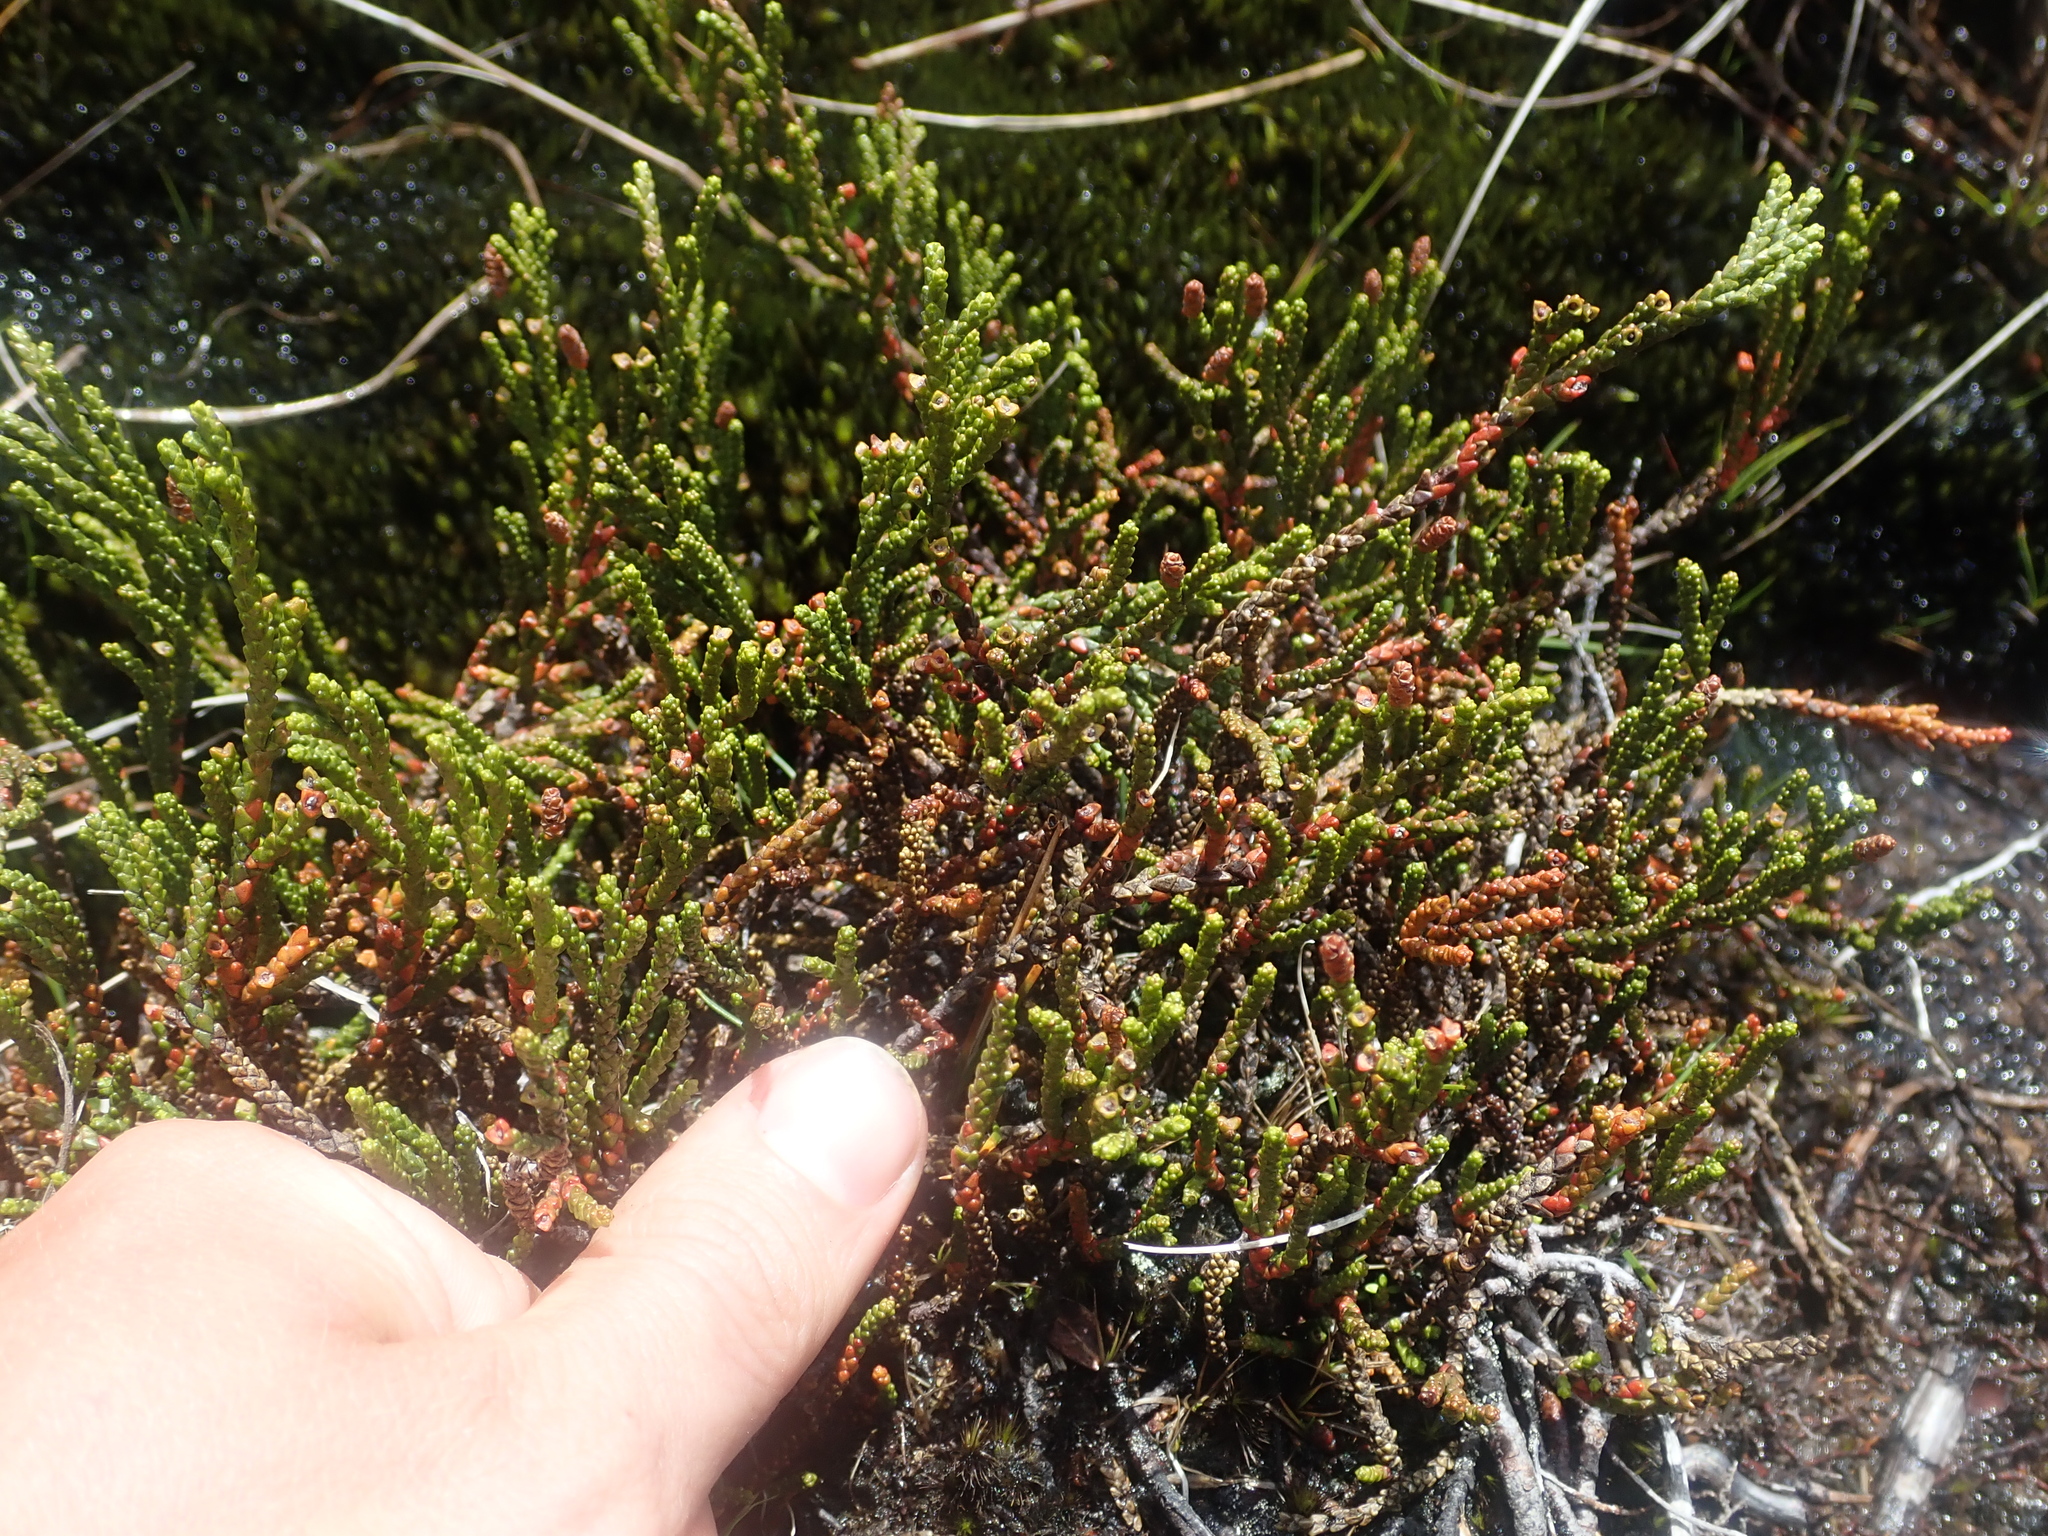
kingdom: Plantae
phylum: Tracheophyta
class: Pinopsida
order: Pinales
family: Podocarpaceae
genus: Lepidothamnus
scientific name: Lepidothamnus fonkii
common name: Chilean rimu
